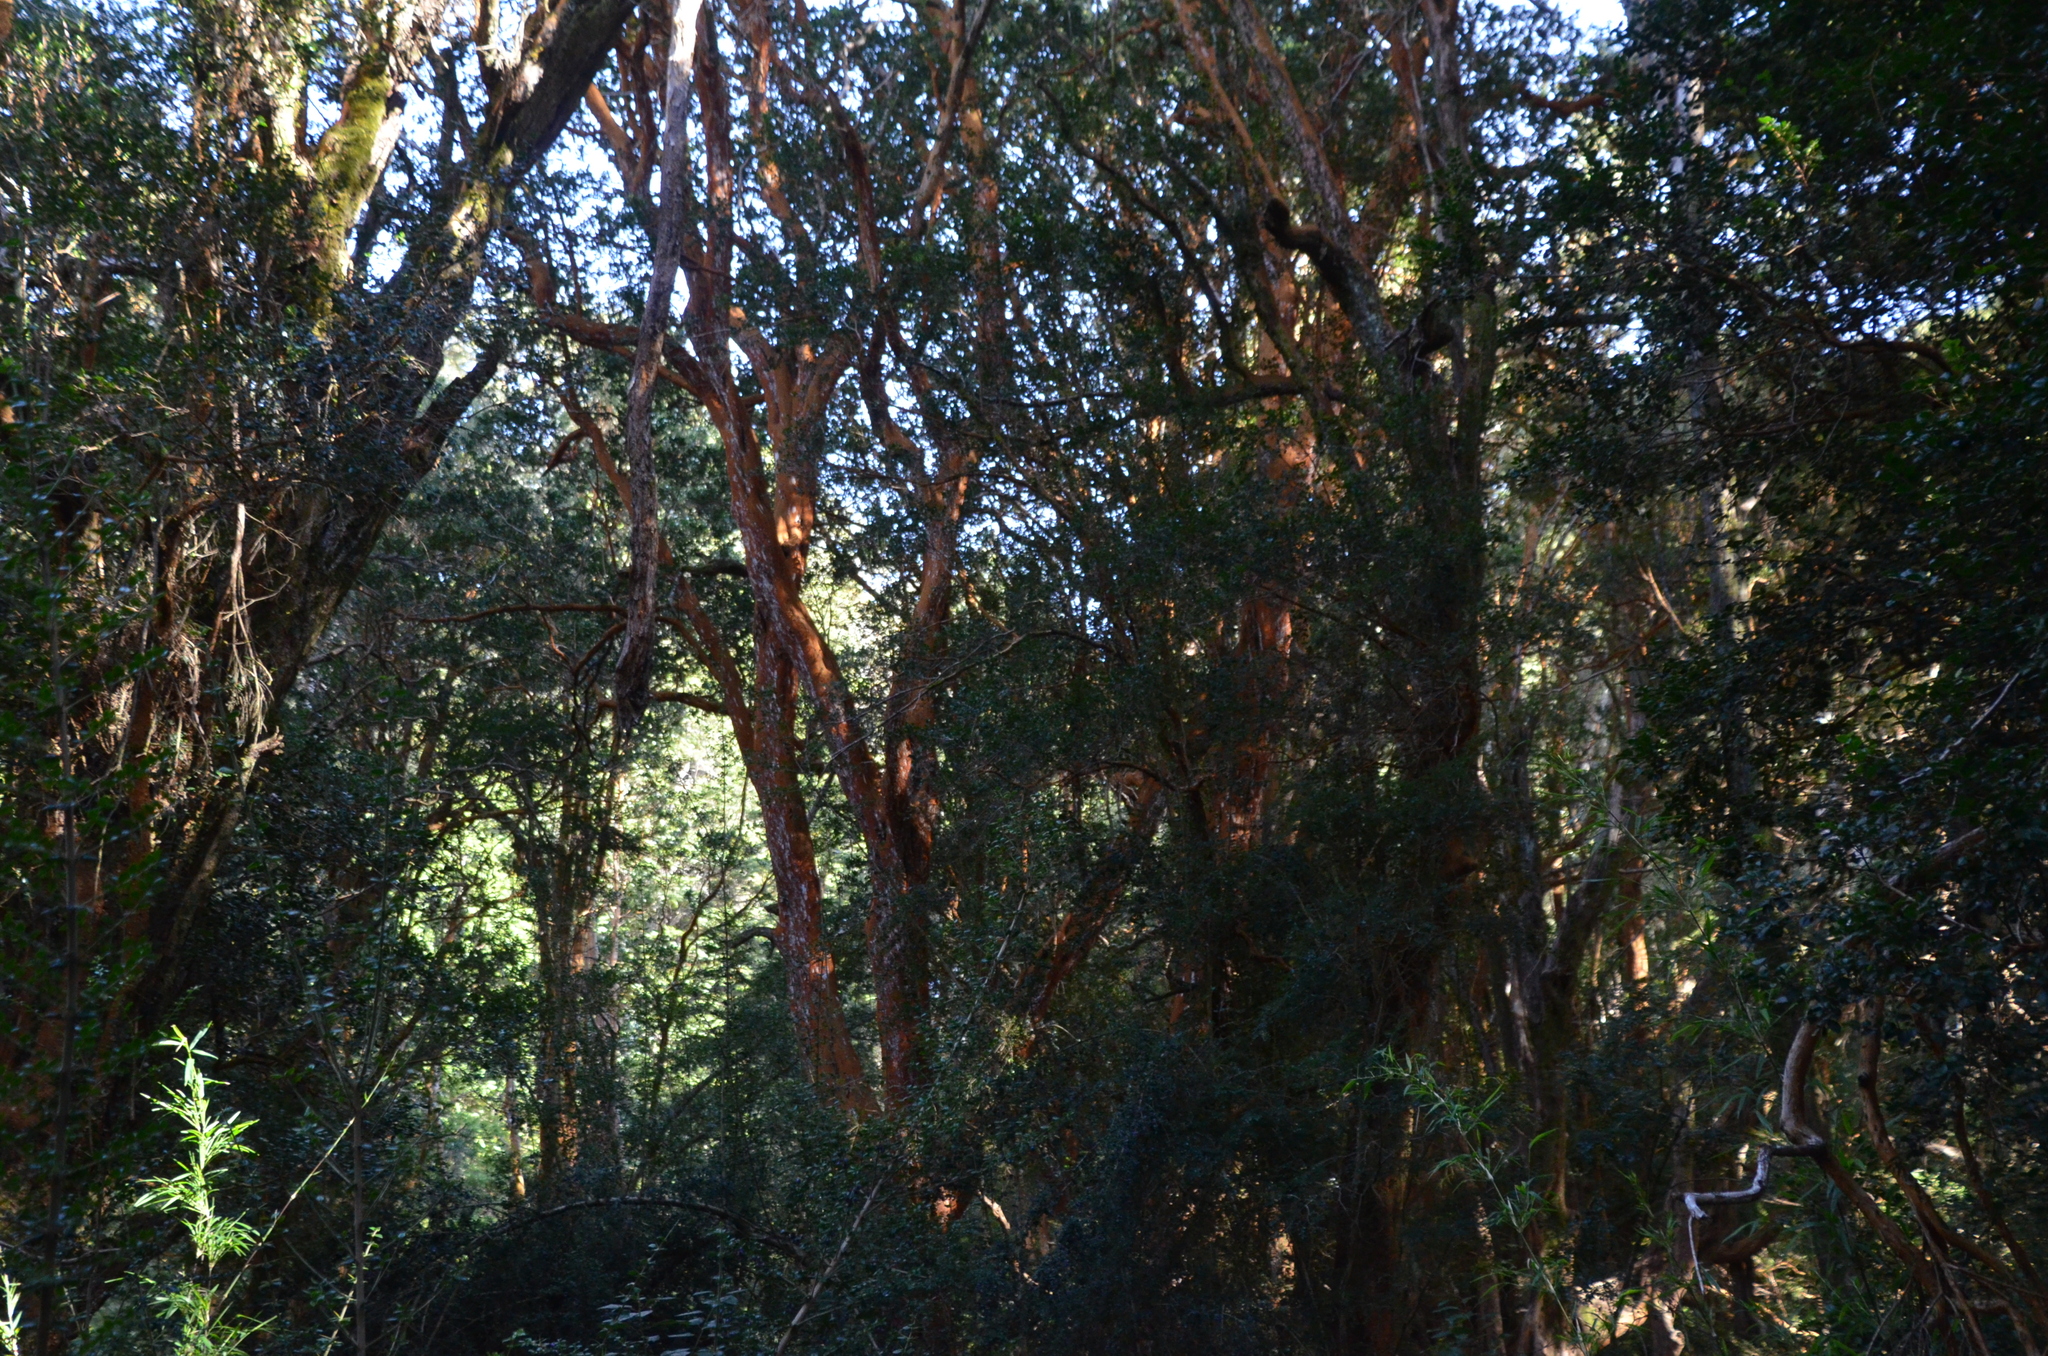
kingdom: Plantae
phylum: Tracheophyta
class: Magnoliopsida
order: Myrtales
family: Myrtaceae
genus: Luma
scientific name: Luma apiculata
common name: Chilean myrtle
